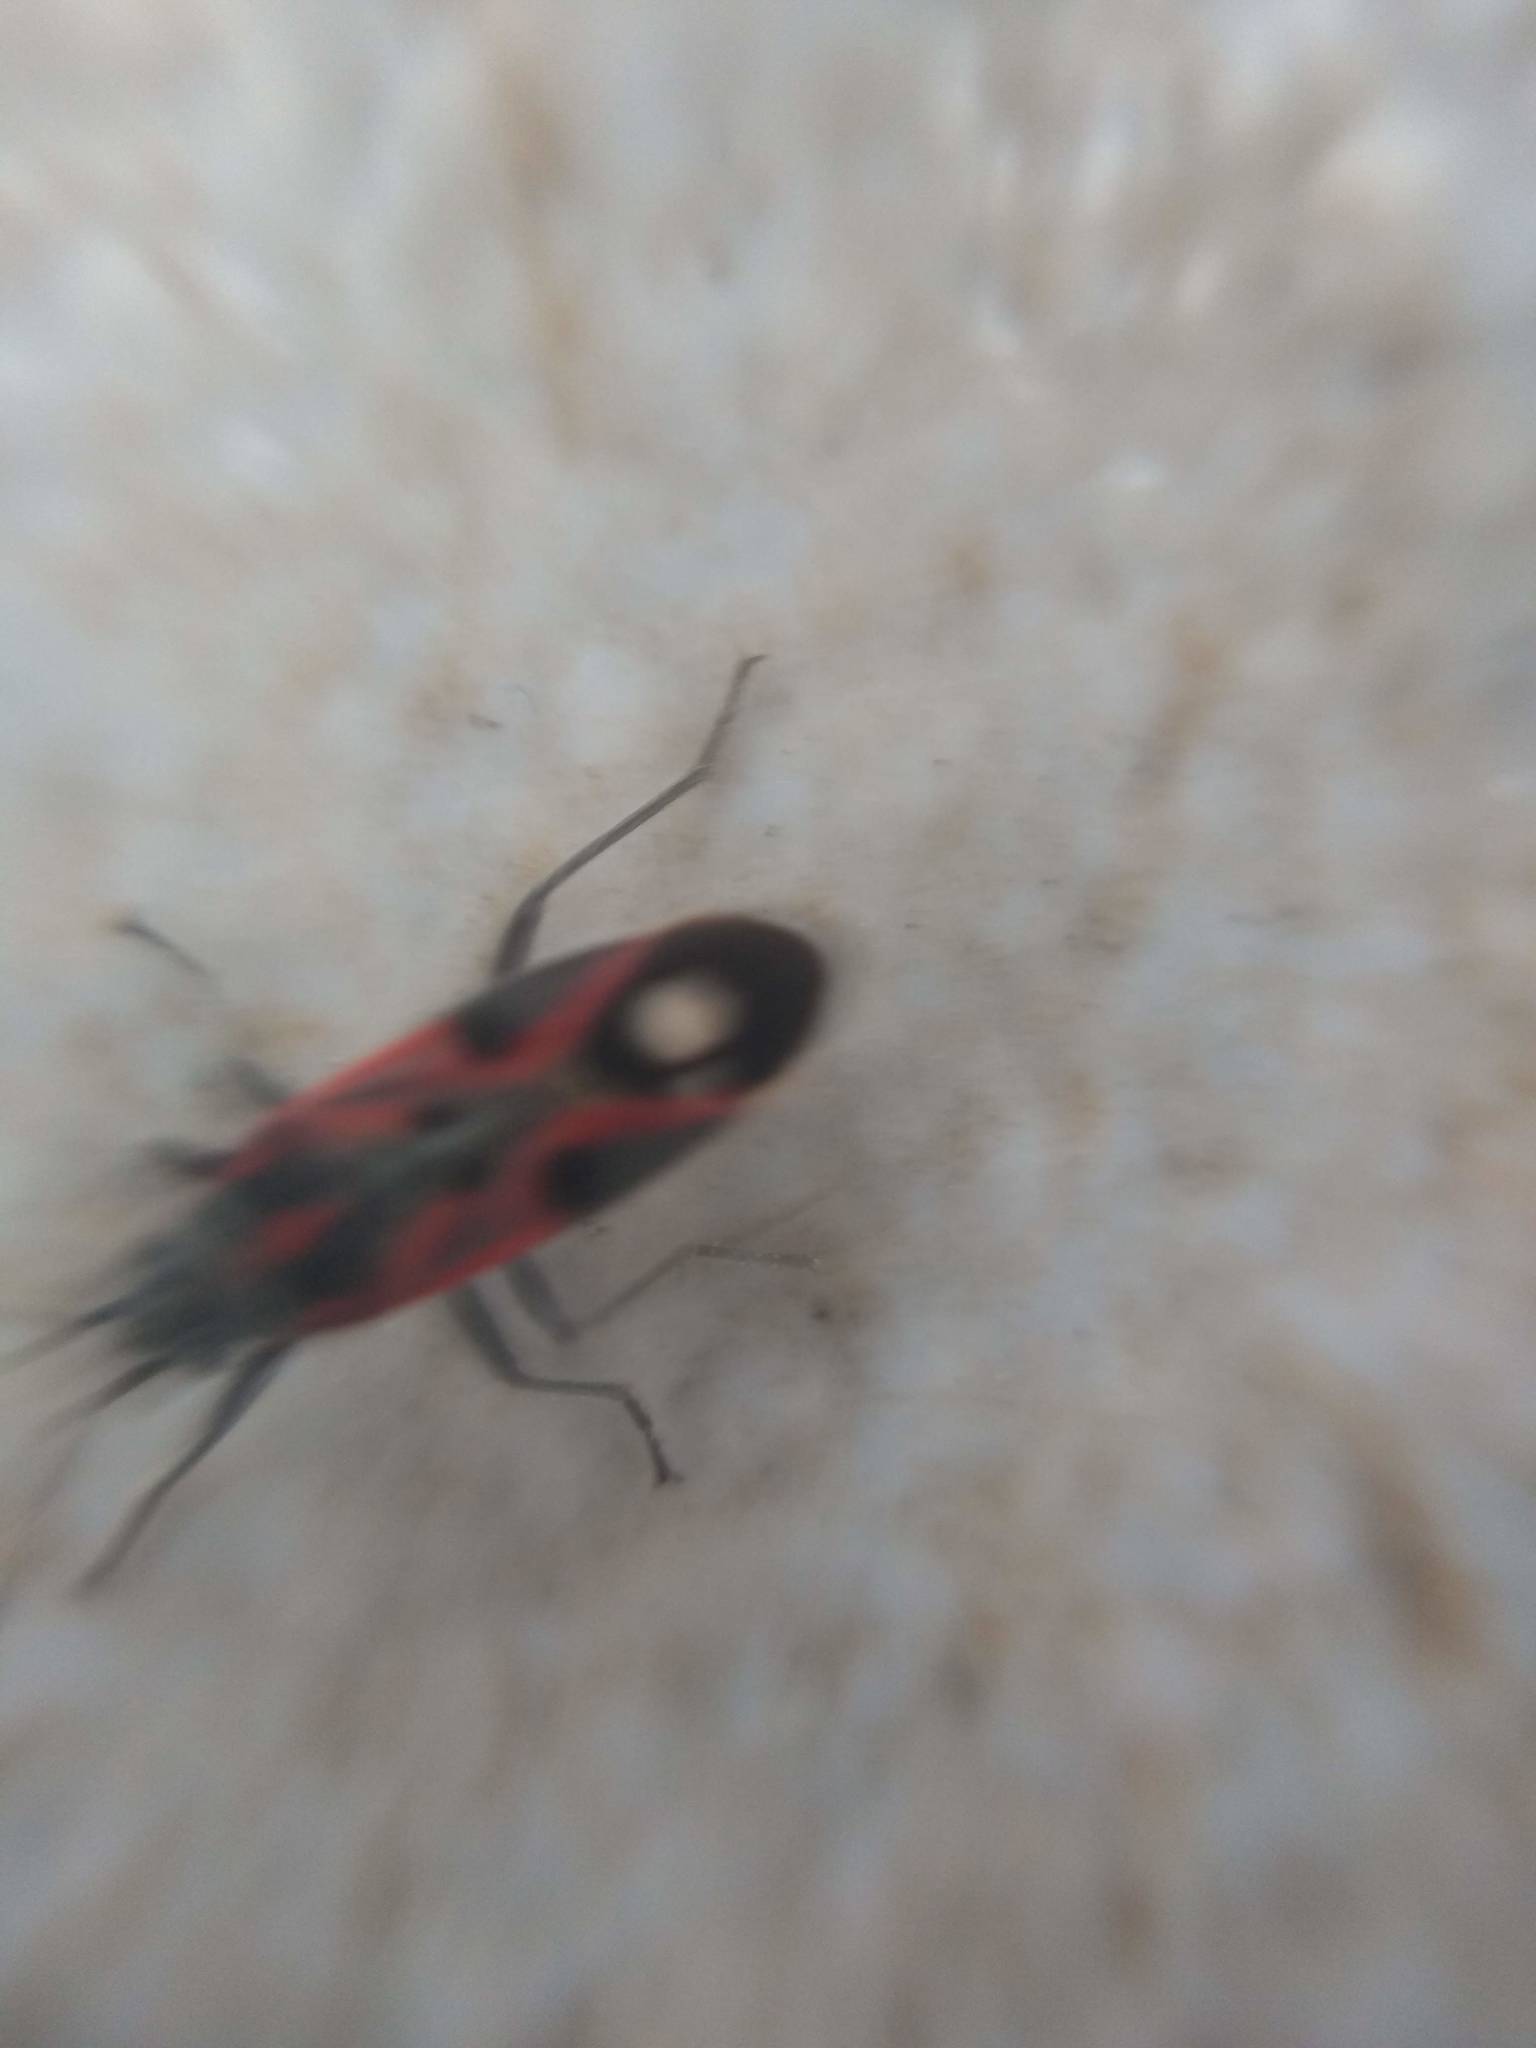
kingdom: Animalia
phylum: Arthropoda
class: Insecta
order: Hemiptera
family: Lygaeidae
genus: Lygaeus
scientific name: Lygaeus alboornatus
